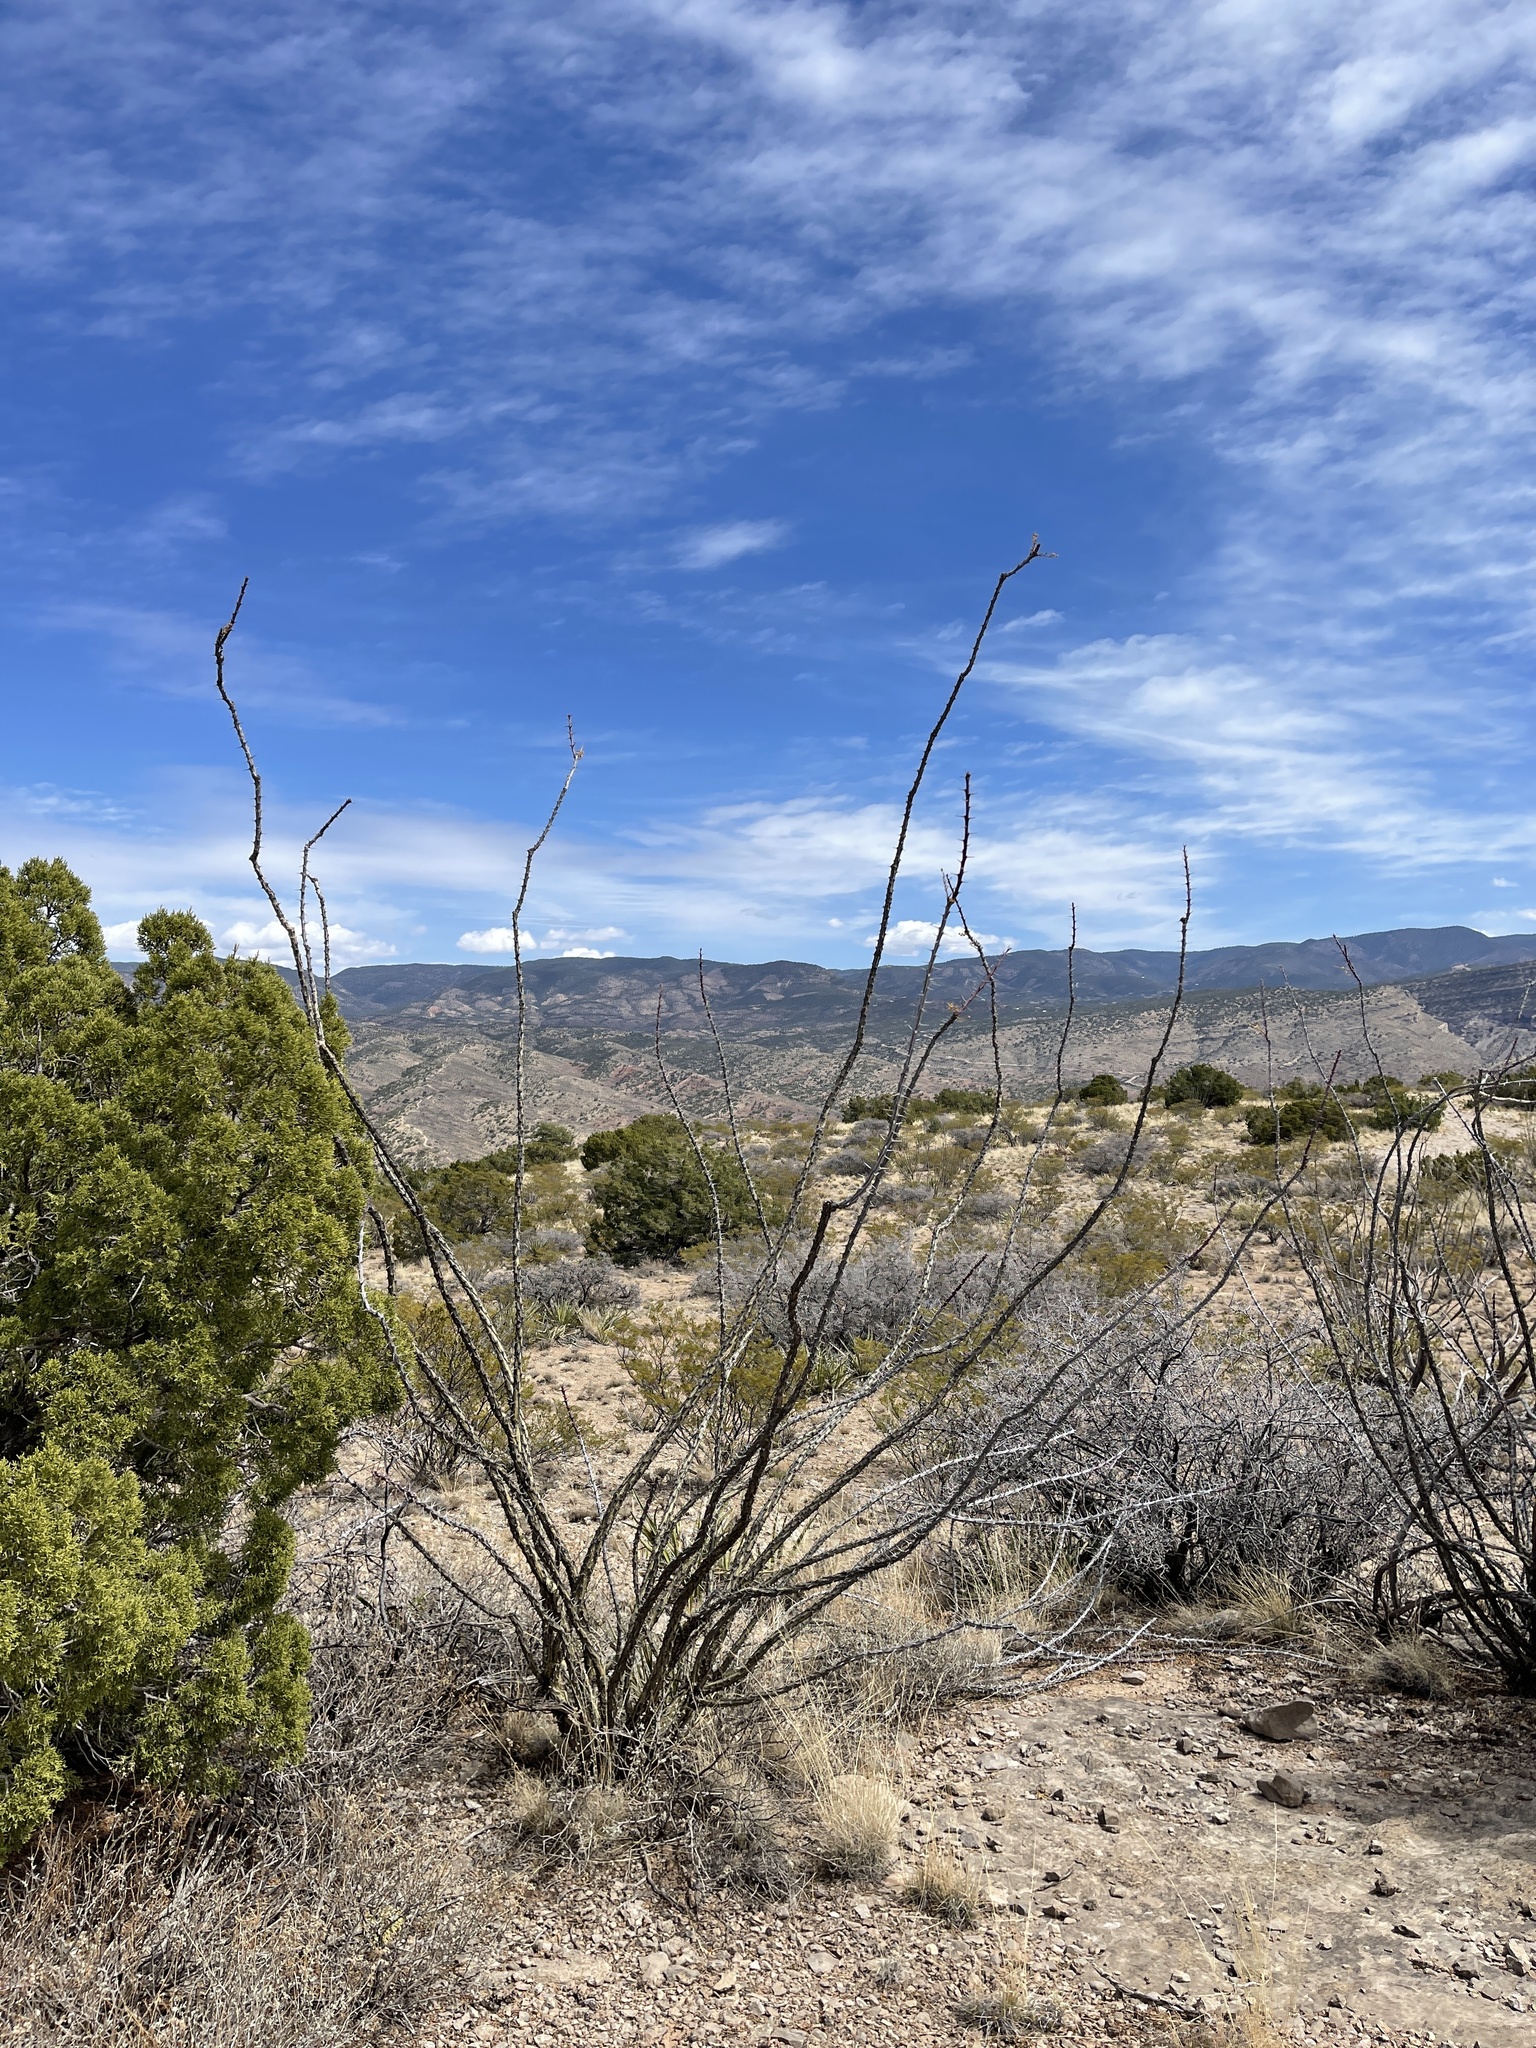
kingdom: Plantae
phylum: Tracheophyta
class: Magnoliopsida
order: Ericales
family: Fouquieriaceae
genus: Fouquieria
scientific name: Fouquieria splendens
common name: Vine-cactus
